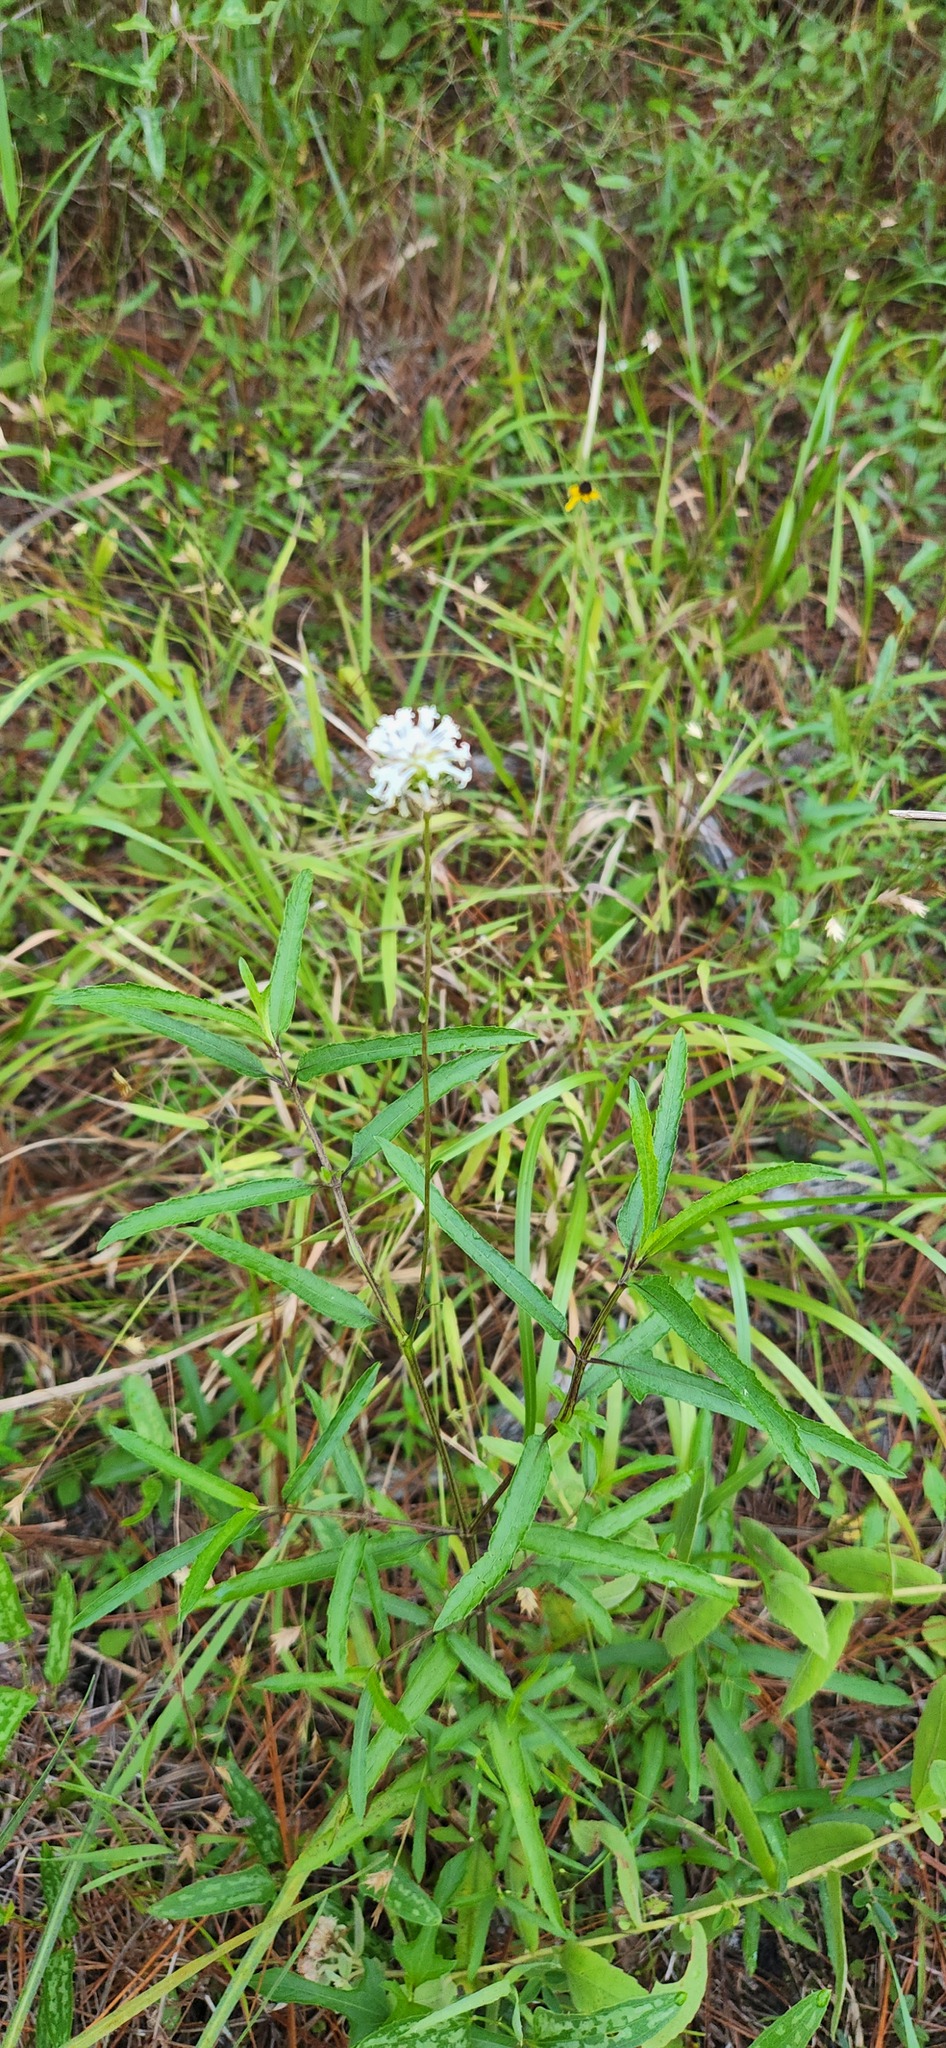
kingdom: Plantae
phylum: Tracheophyta
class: Magnoliopsida
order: Asterales
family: Asteraceae
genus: Melanthera
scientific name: Melanthera nivea
